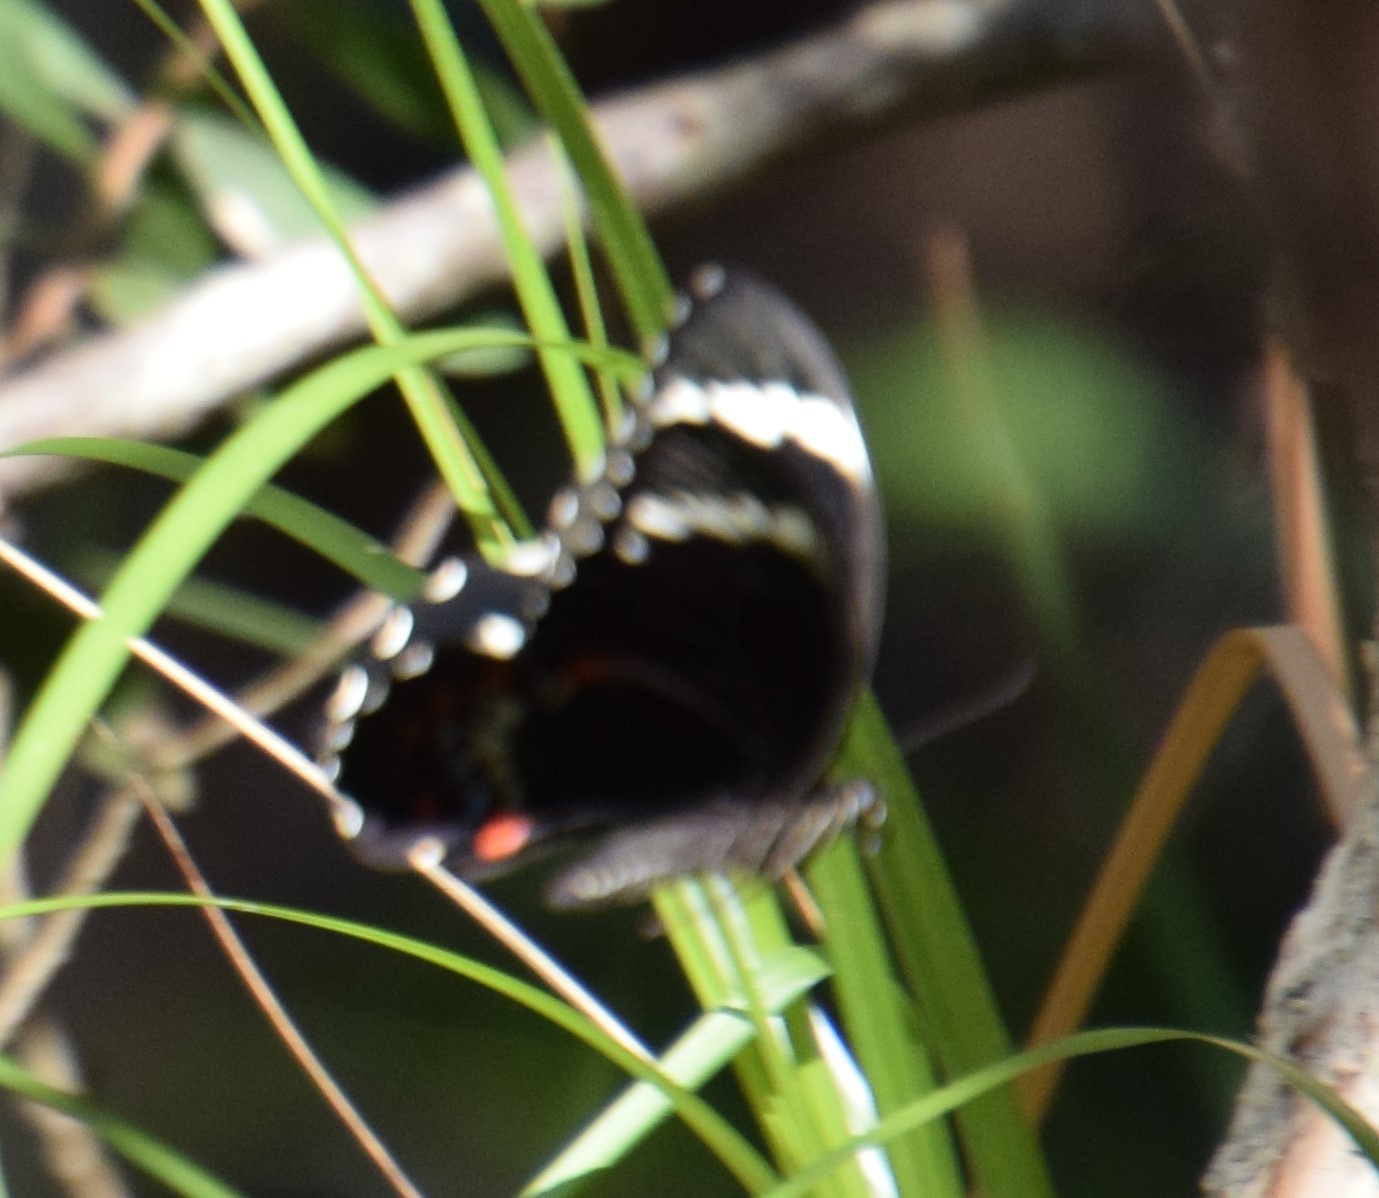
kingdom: Animalia
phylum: Arthropoda
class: Insecta
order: Lepidoptera
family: Papilionidae
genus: Papilio
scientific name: Papilio aegeus
